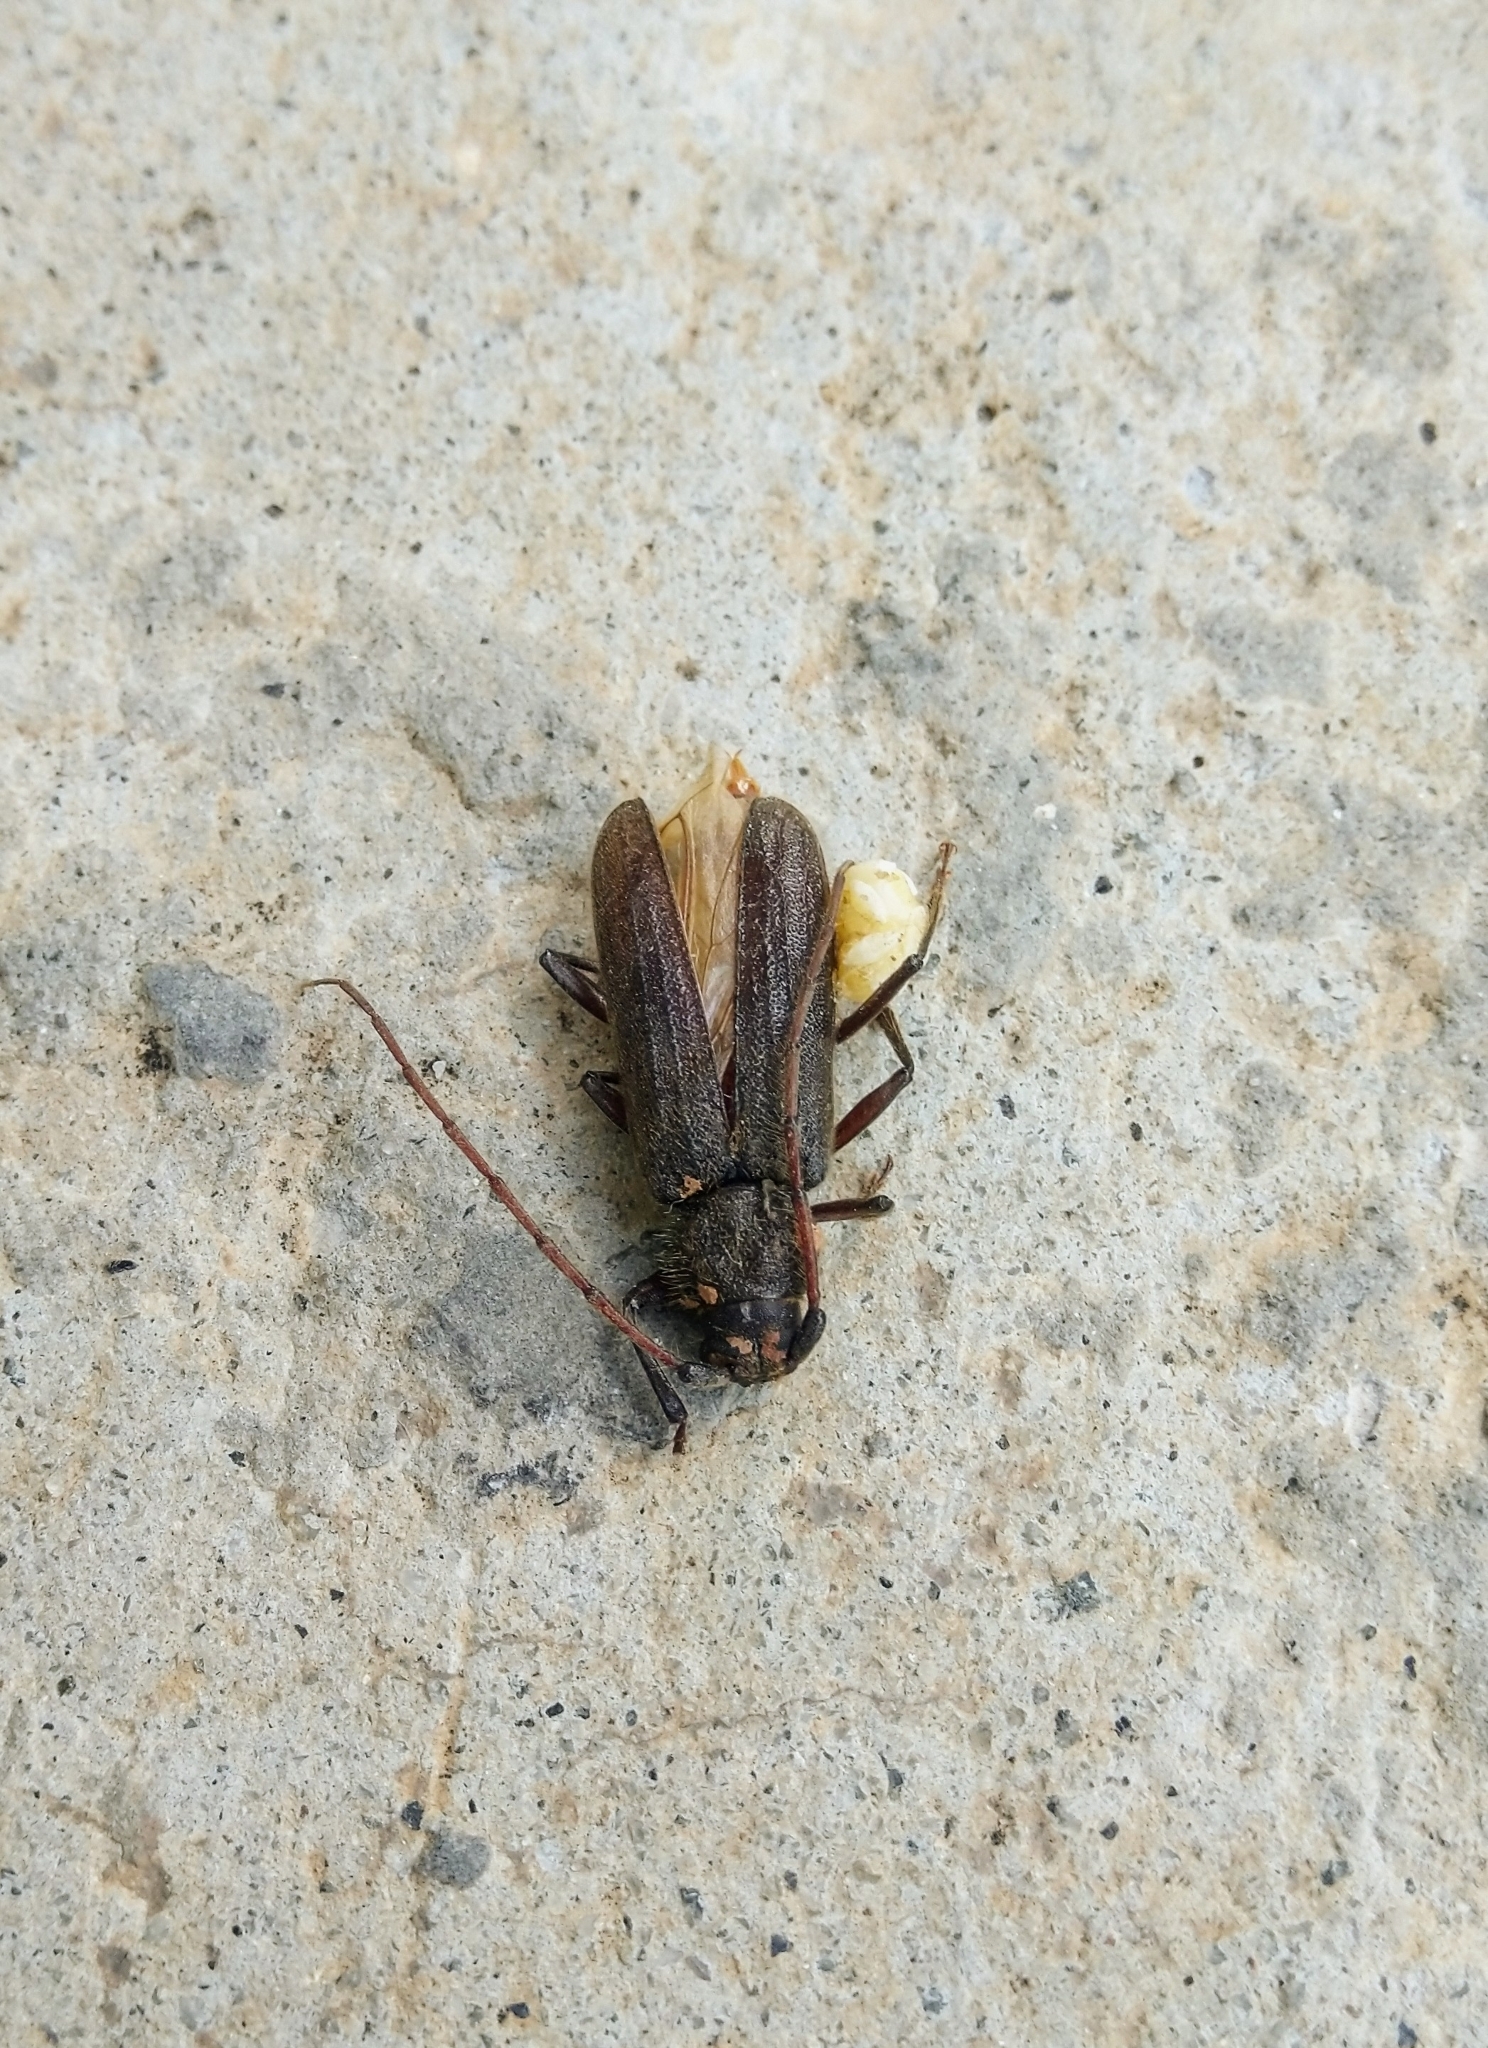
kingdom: Animalia
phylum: Arthropoda
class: Insecta
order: Coleoptera
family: Cerambycidae
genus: Stromatium
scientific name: Stromatium barbatum
